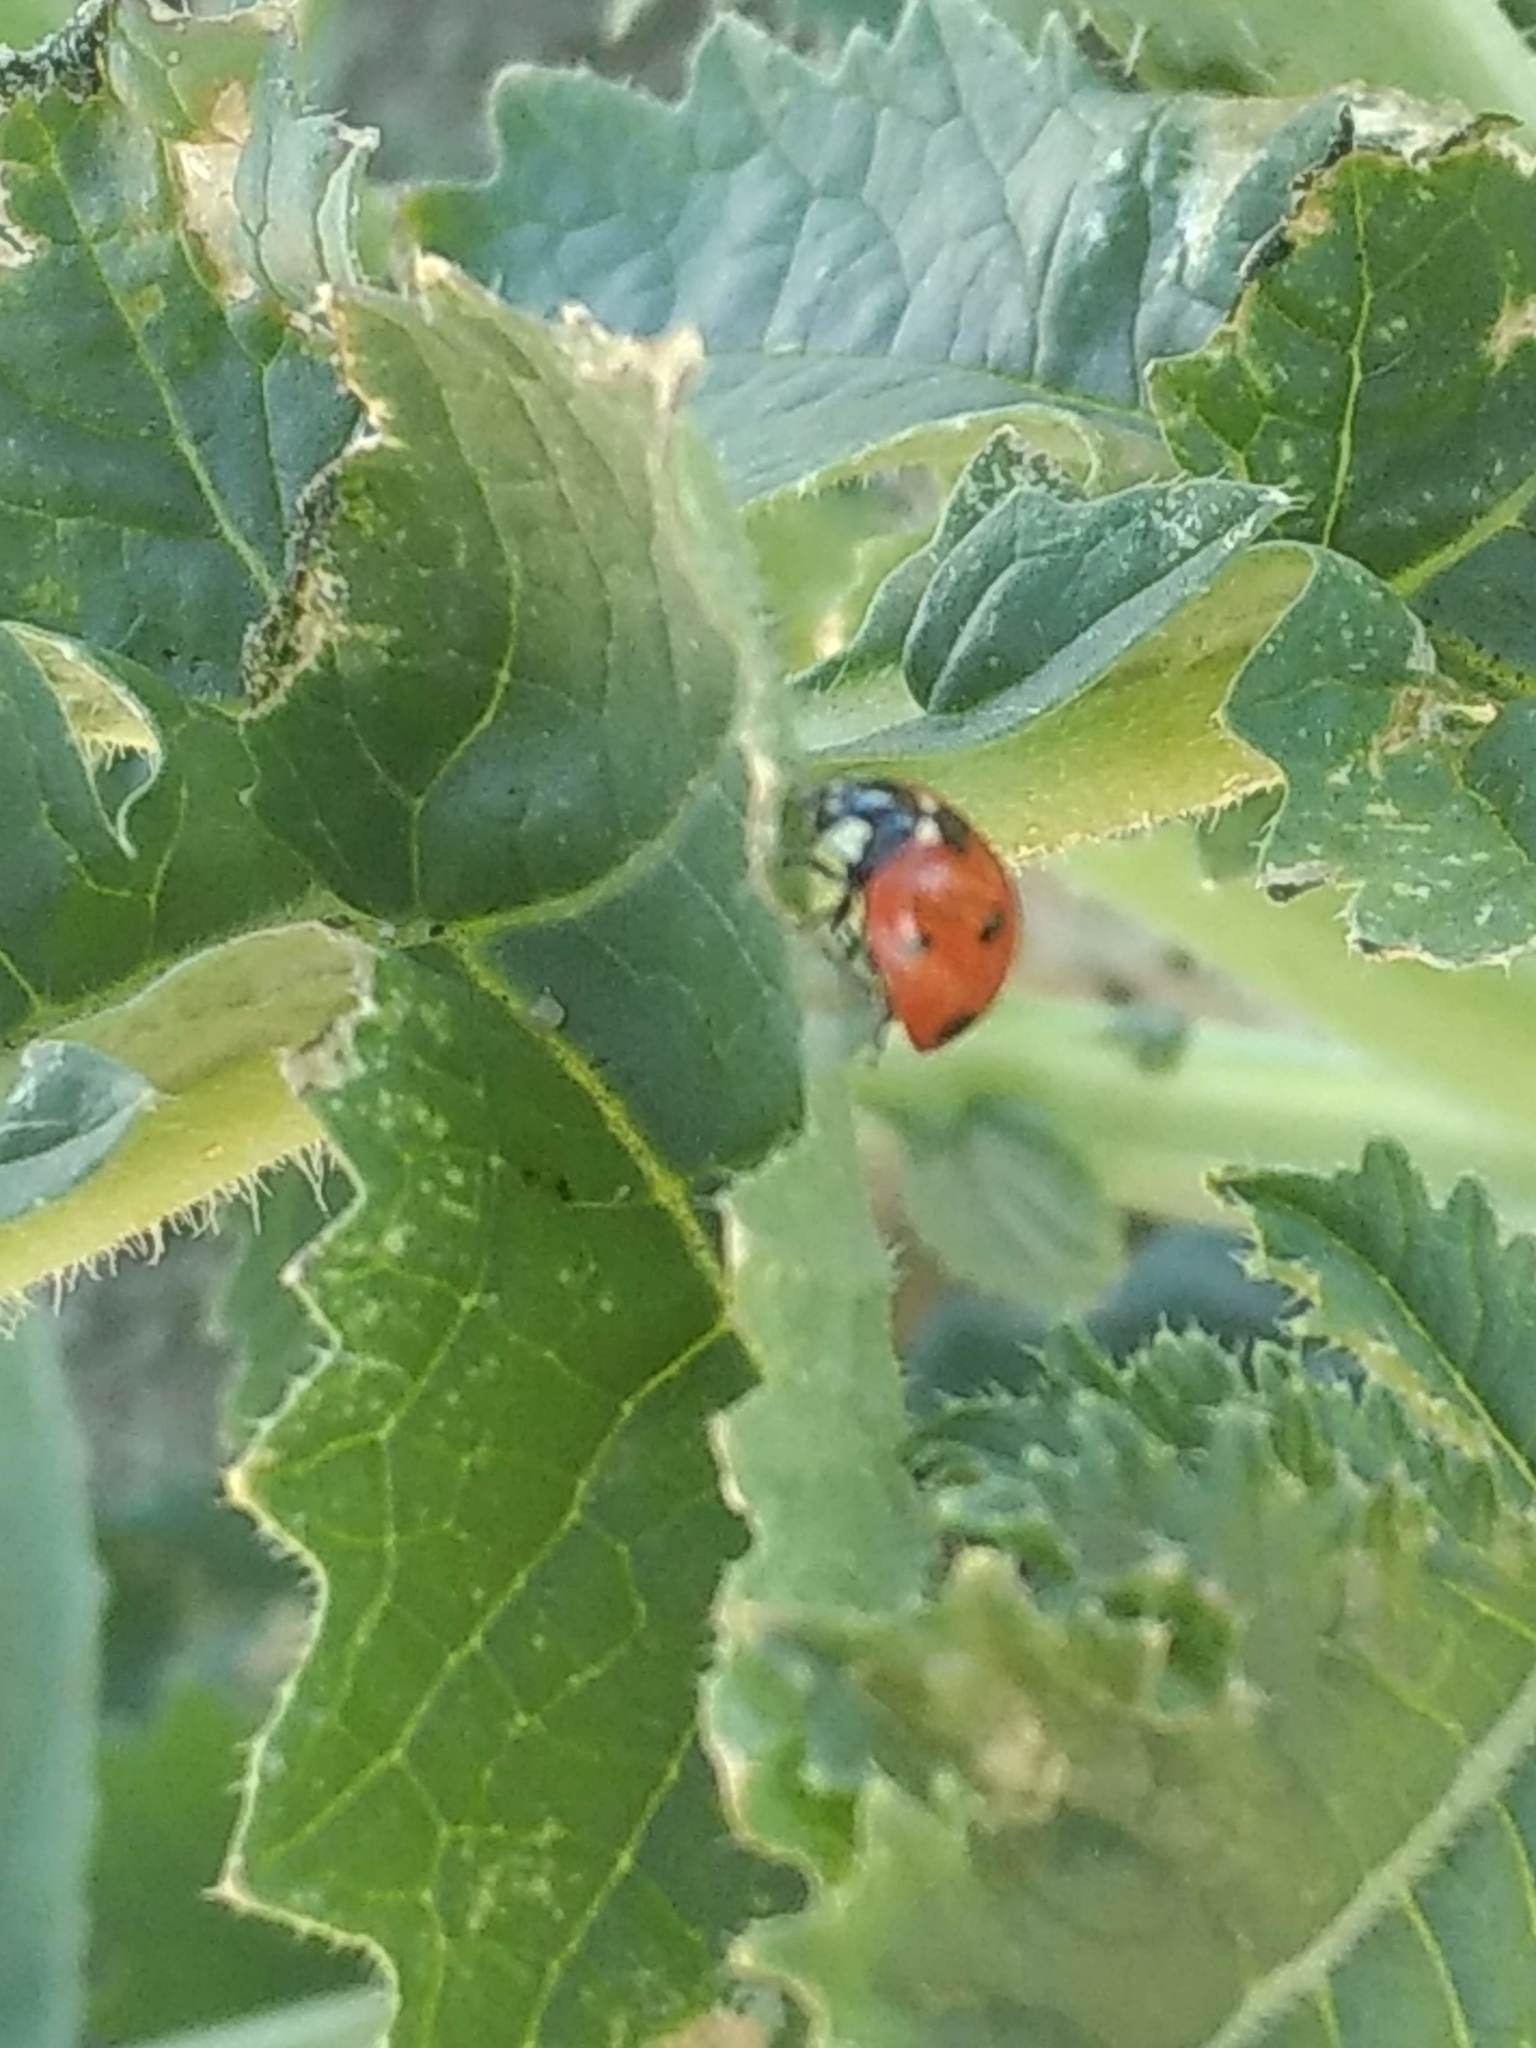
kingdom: Animalia
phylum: Arthropoda
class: Insecta
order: Coleoptera
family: Coccinellidae
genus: Coccinella
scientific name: Coccinella septempunctata
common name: Sevenspotted lady beetle
